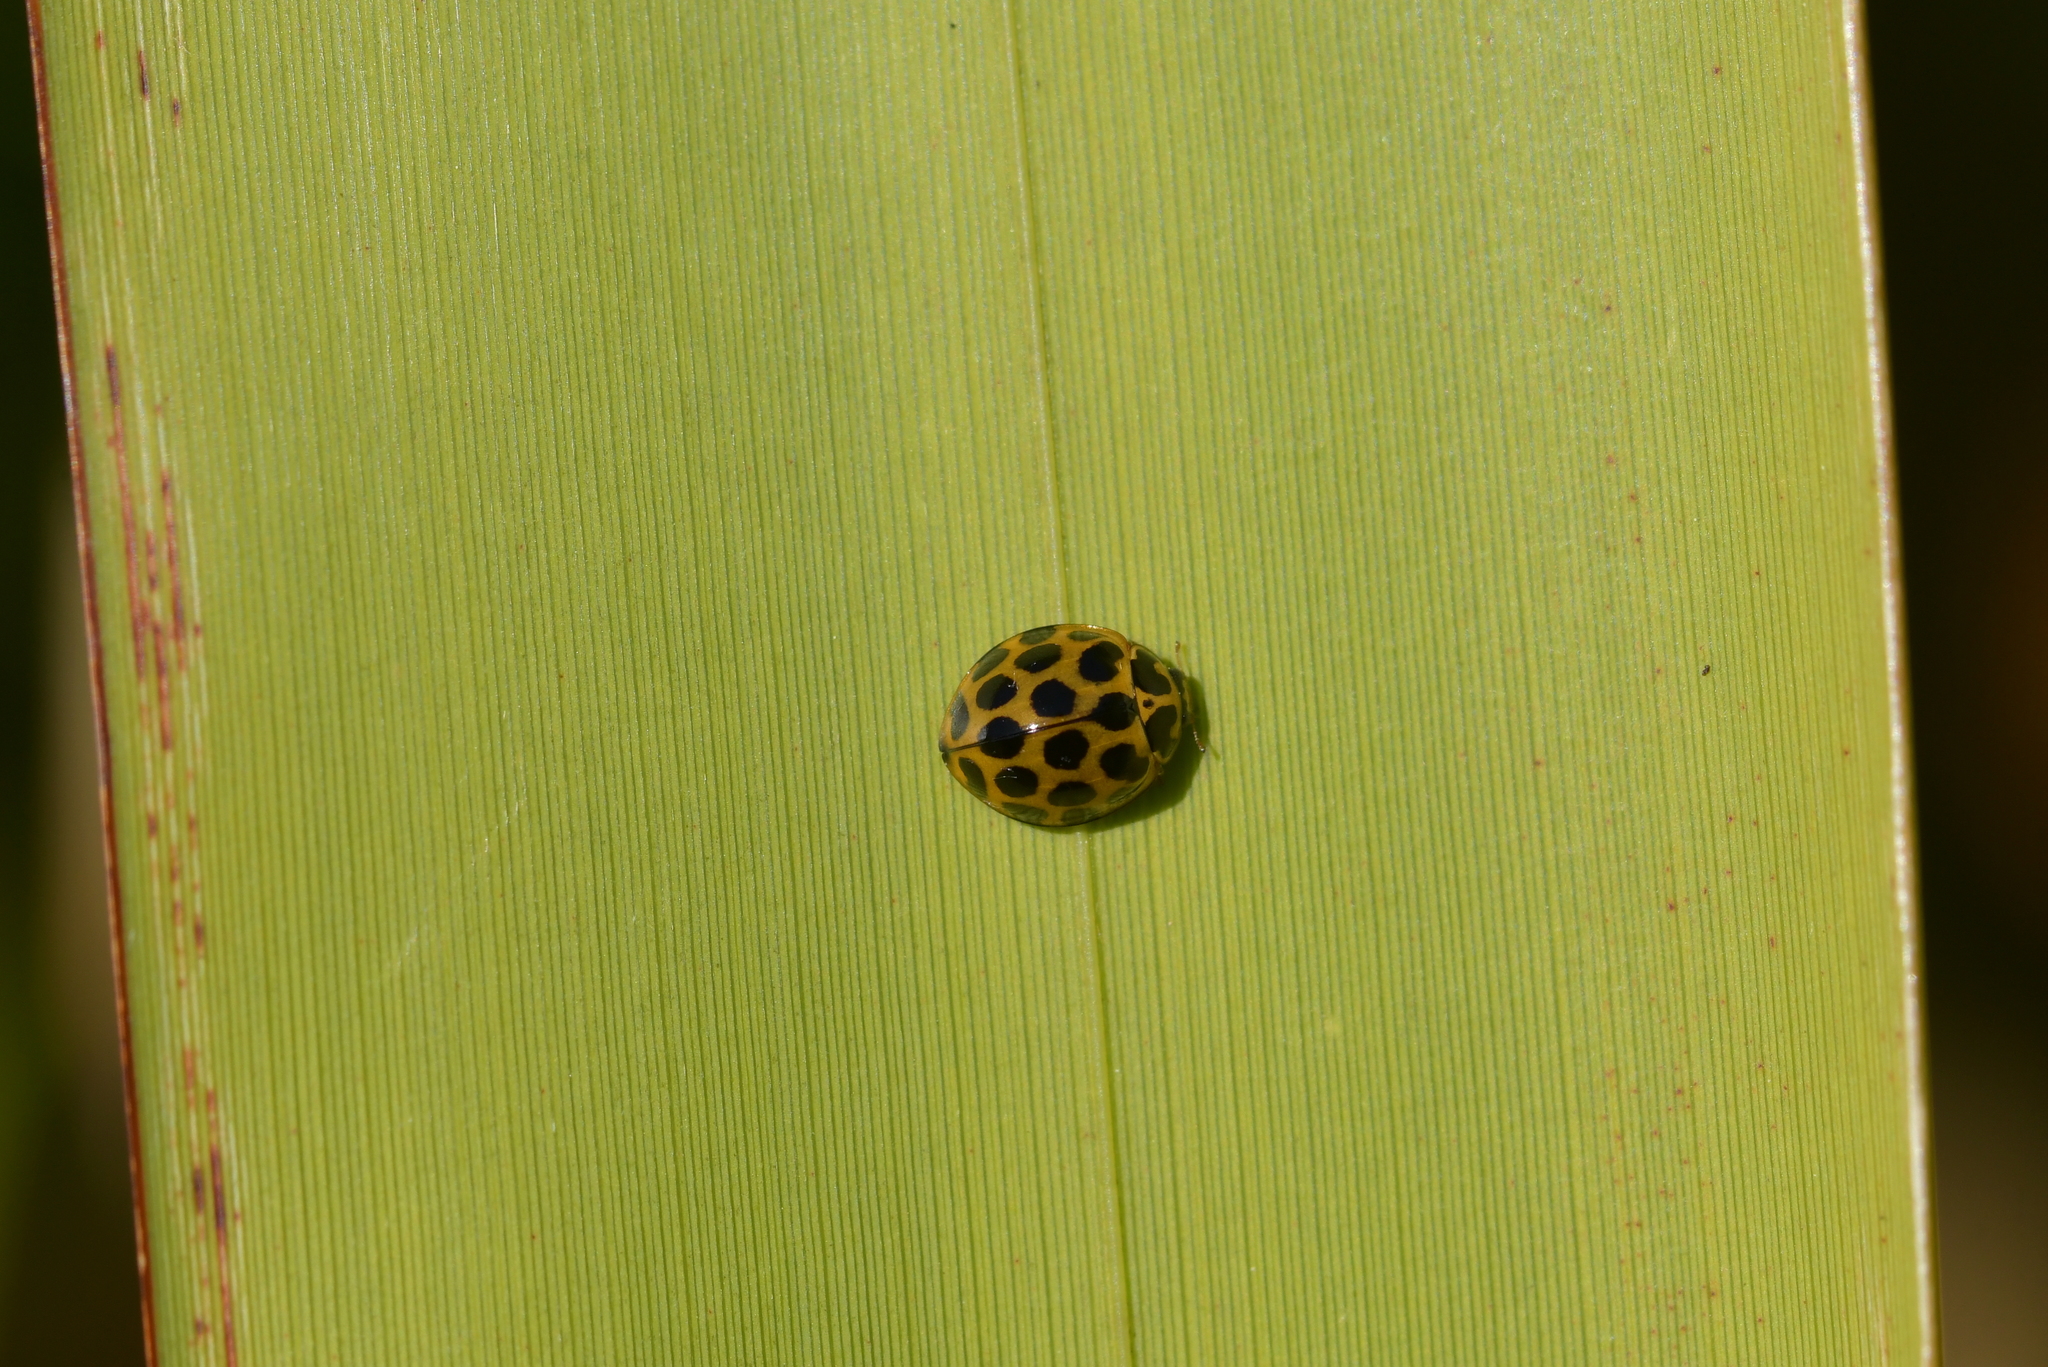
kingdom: Animalia
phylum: Arthropoda
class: Insecta
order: Coleoptera
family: Coccinellidae
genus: Harmonia
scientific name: Harmonia conformis
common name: Common spotted ladybird beetle
